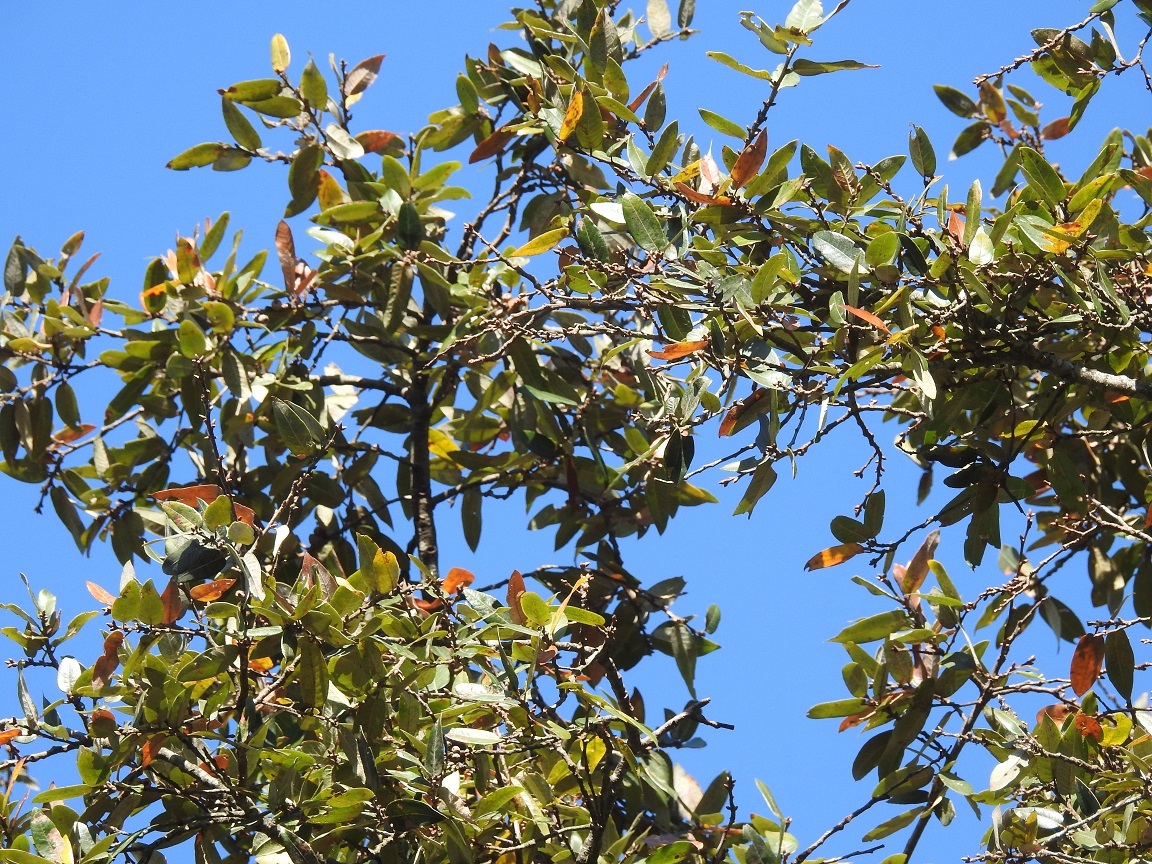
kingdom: Plantae
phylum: Tracheophyta
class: Magnoliopsida
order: Fagales
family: Fagaceae
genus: Quercus
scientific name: Quercus dysophylla
